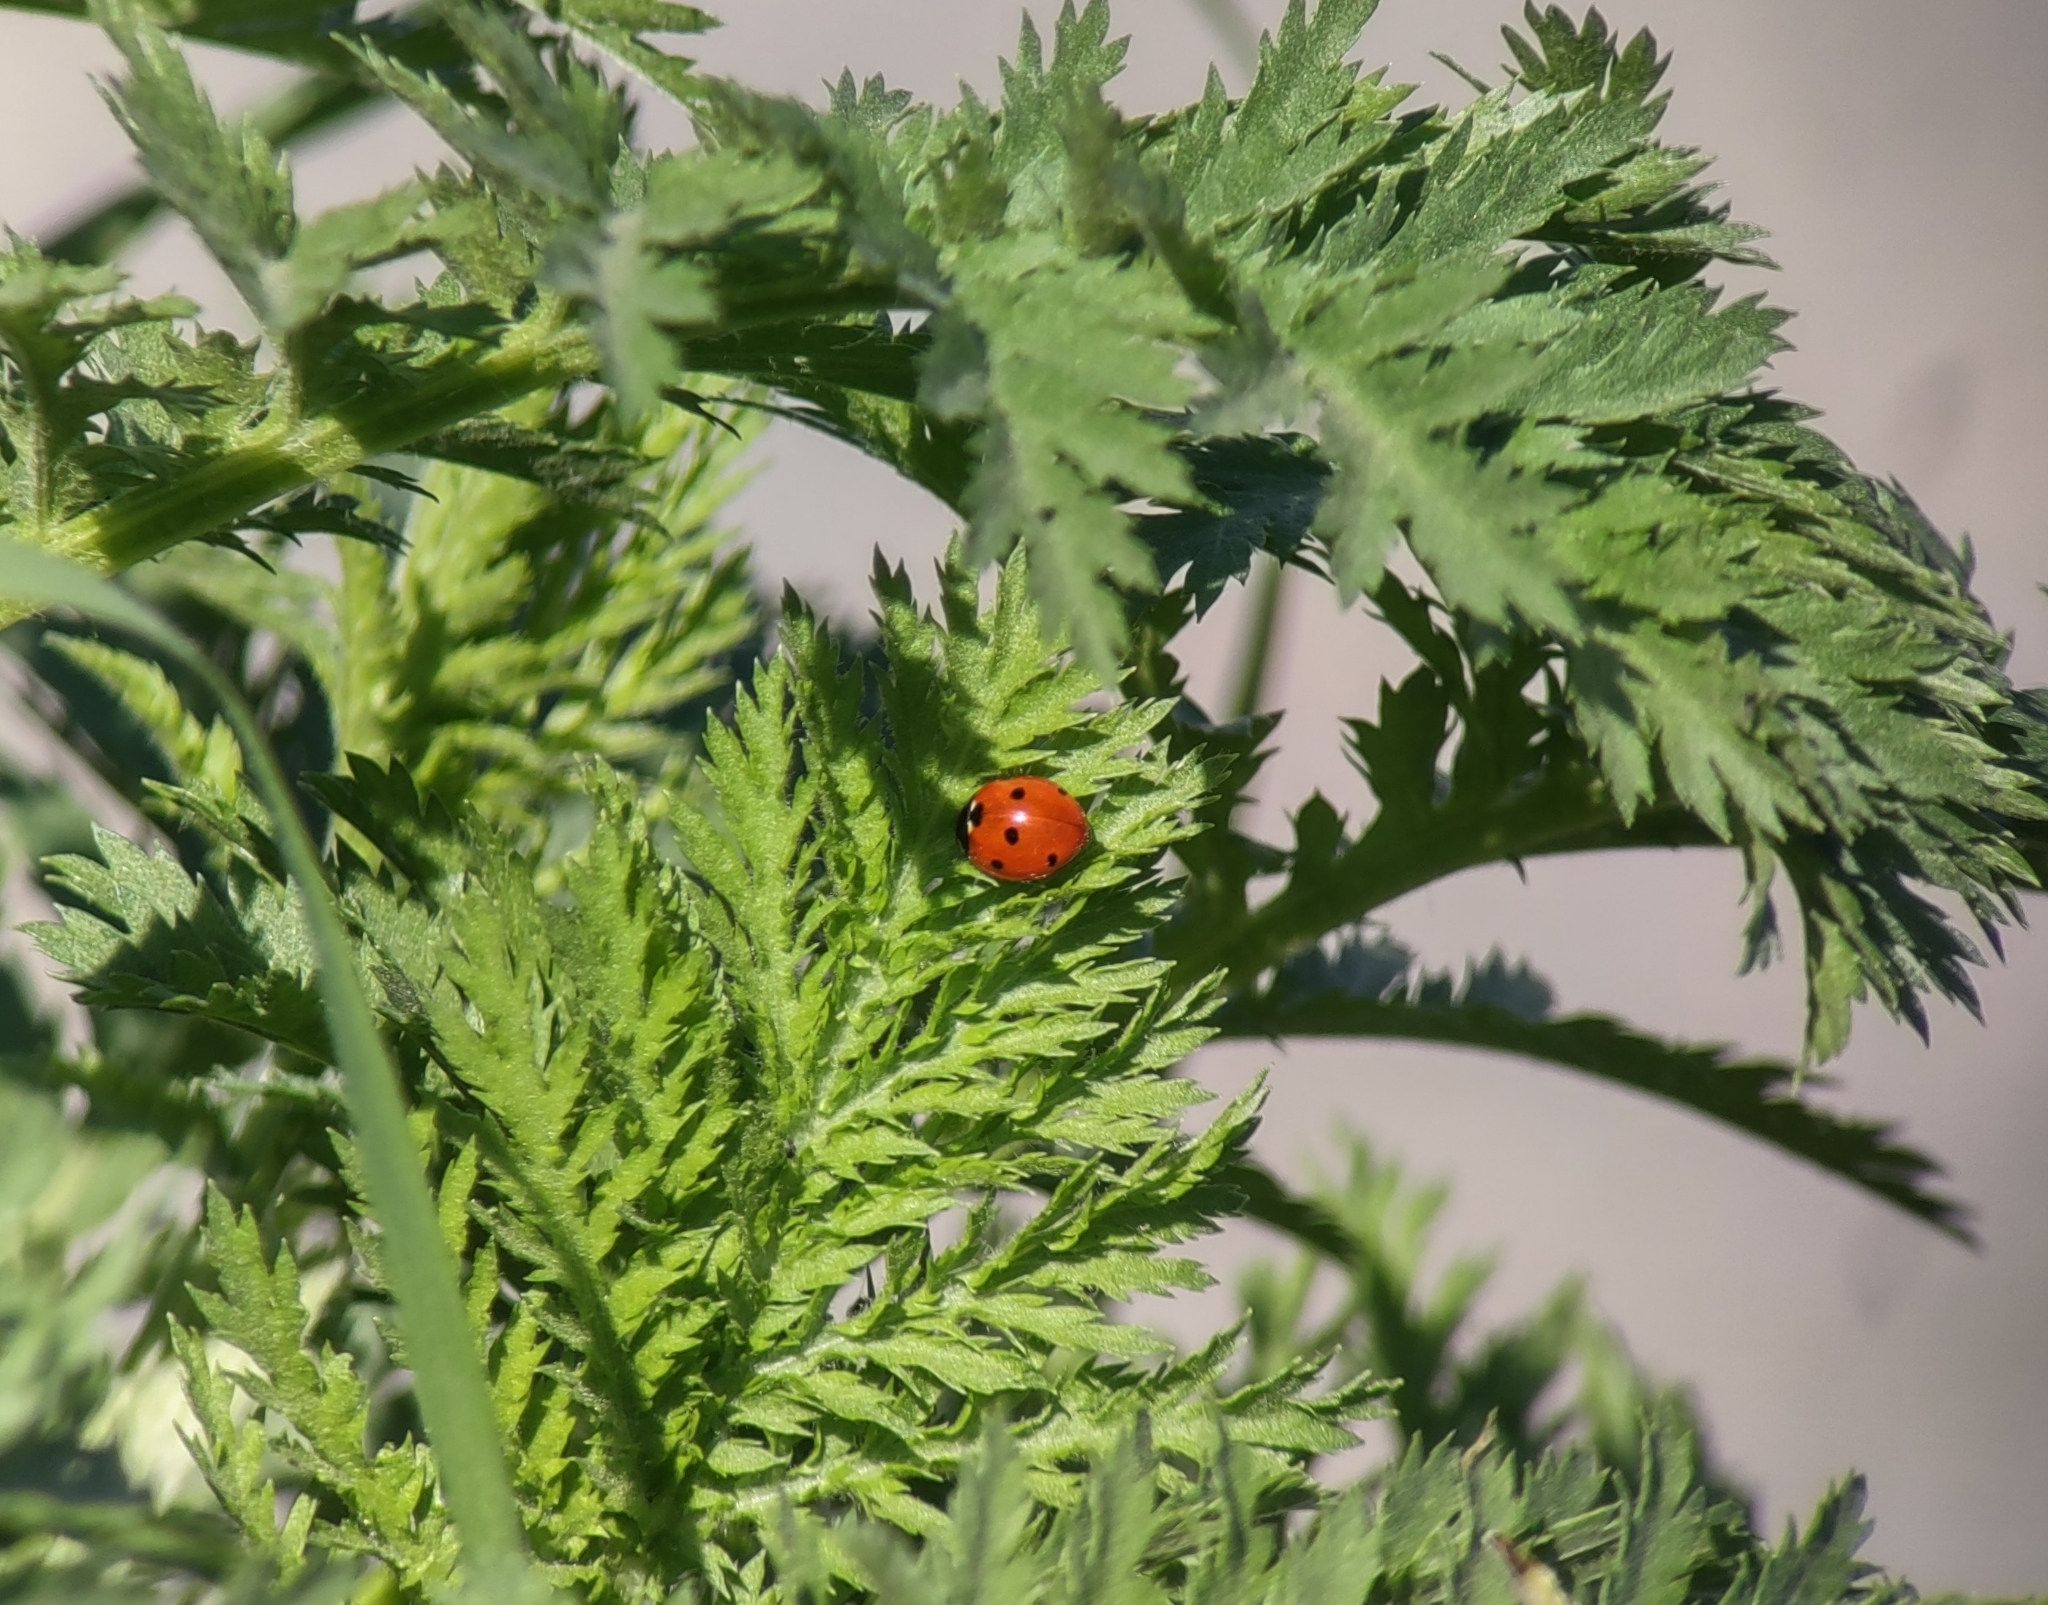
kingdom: Animalia
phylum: Arthropoda
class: Insecta
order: Coleoptera
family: Coccinellidae
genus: Coccinella
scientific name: Coccinella septempunctata
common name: Sevenspotted lady beetle
